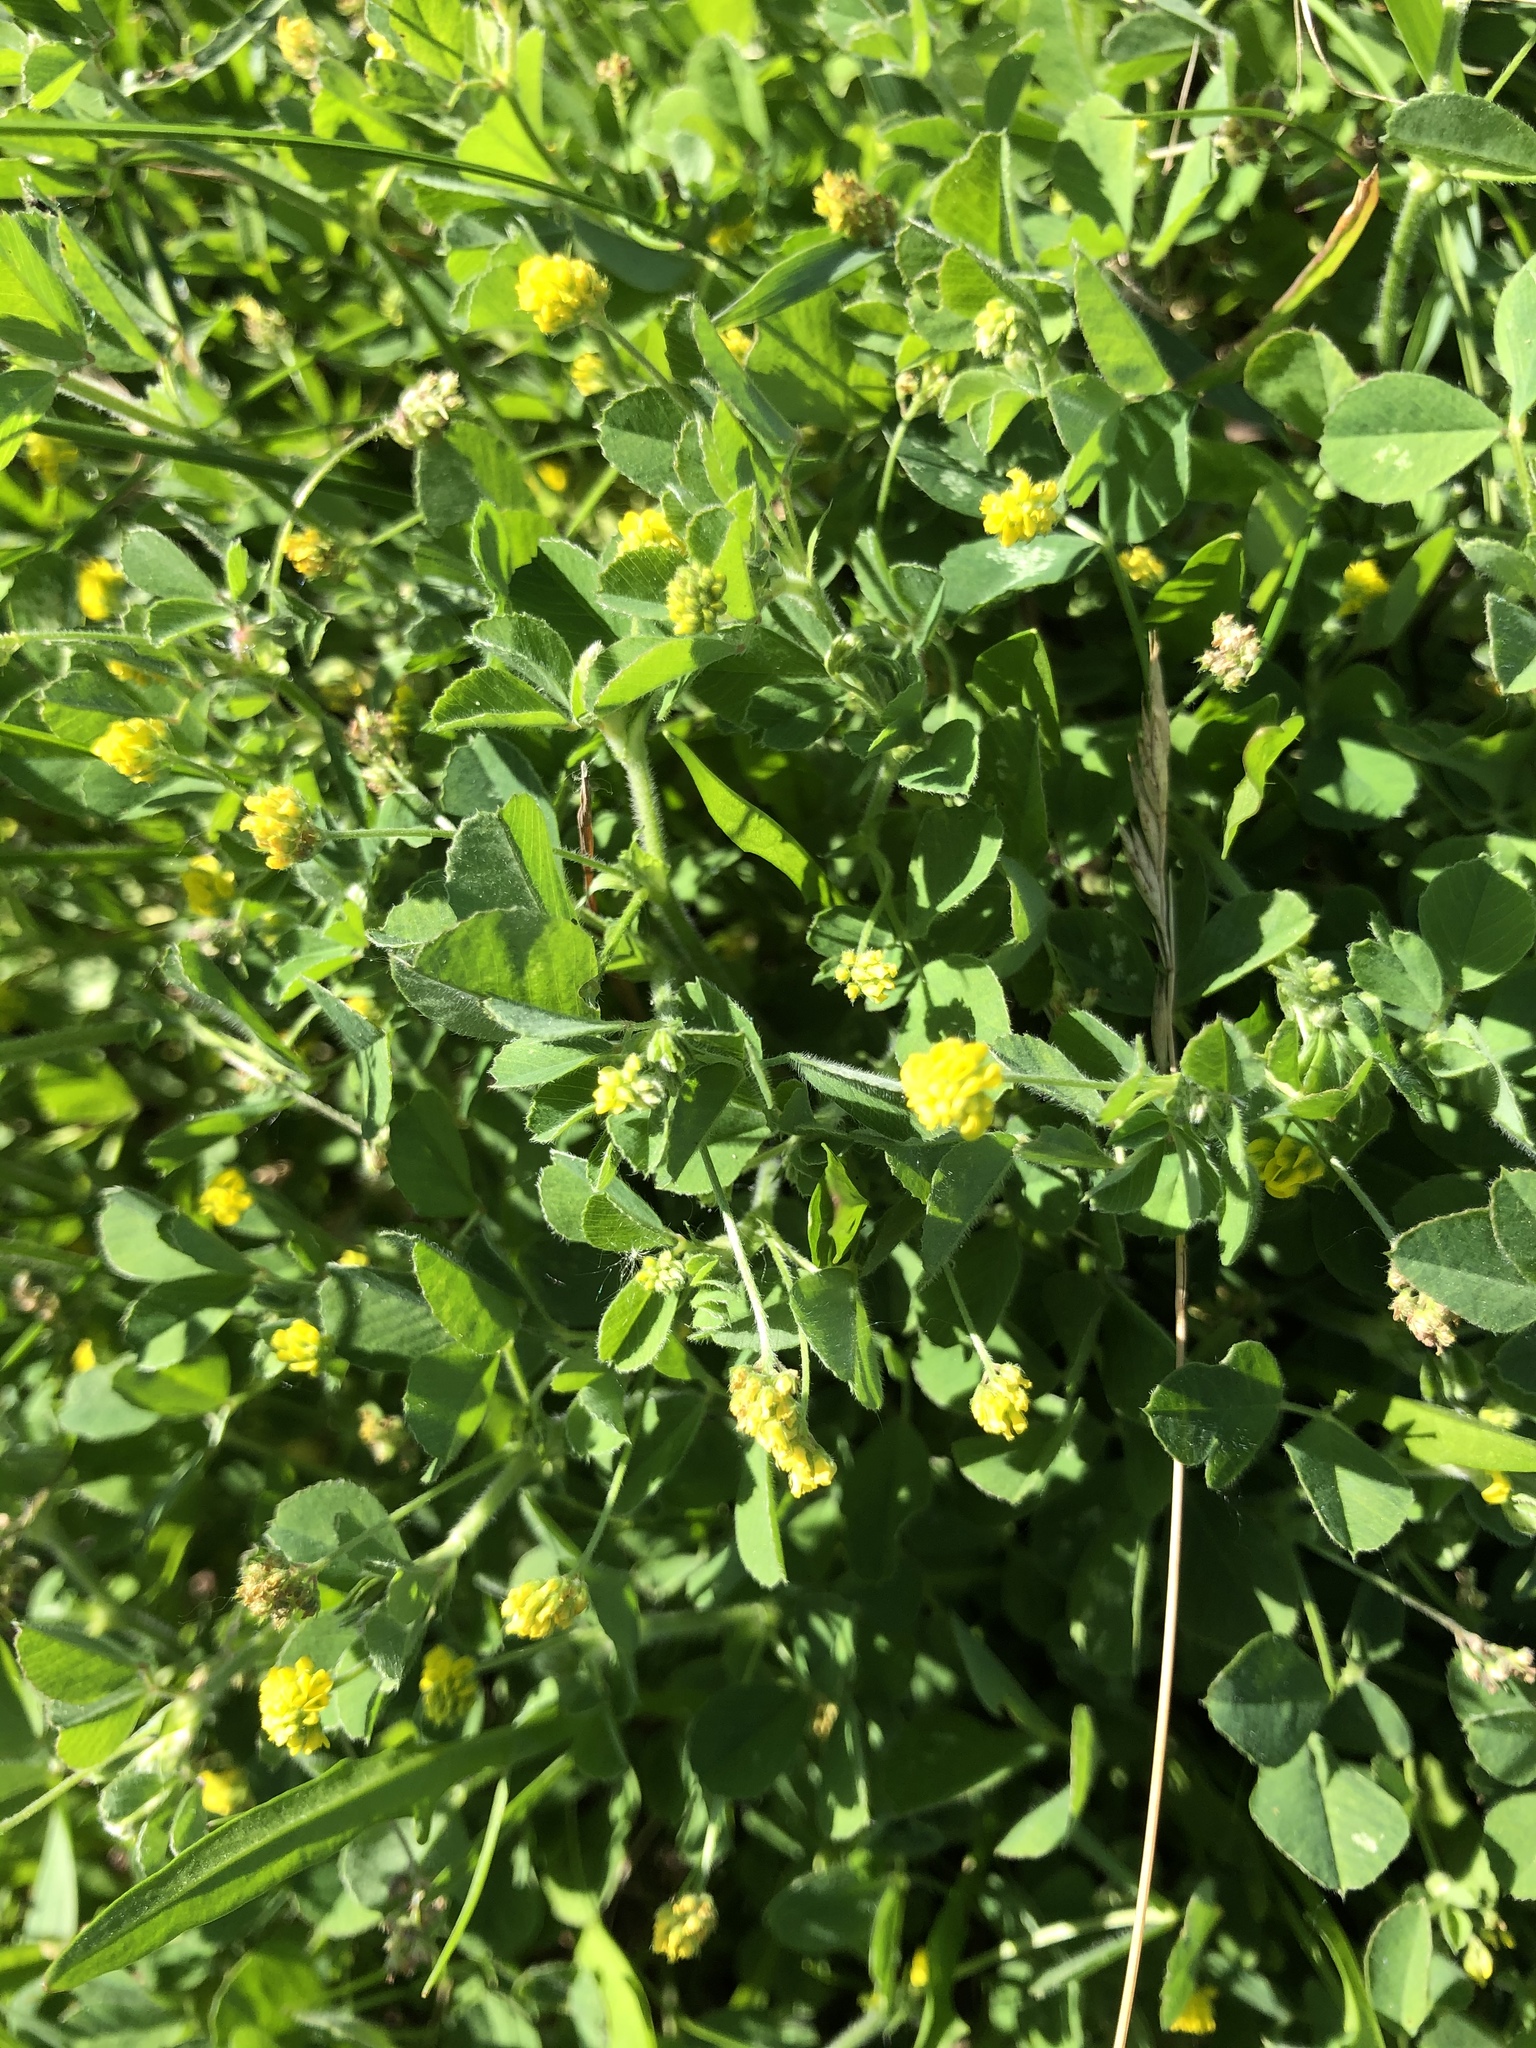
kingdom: Plantae
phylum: Tracheophyta
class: Magnoliopsida
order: Fabales
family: Fabaceae
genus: Medicago
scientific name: Medicago lupulina
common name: Black medick
